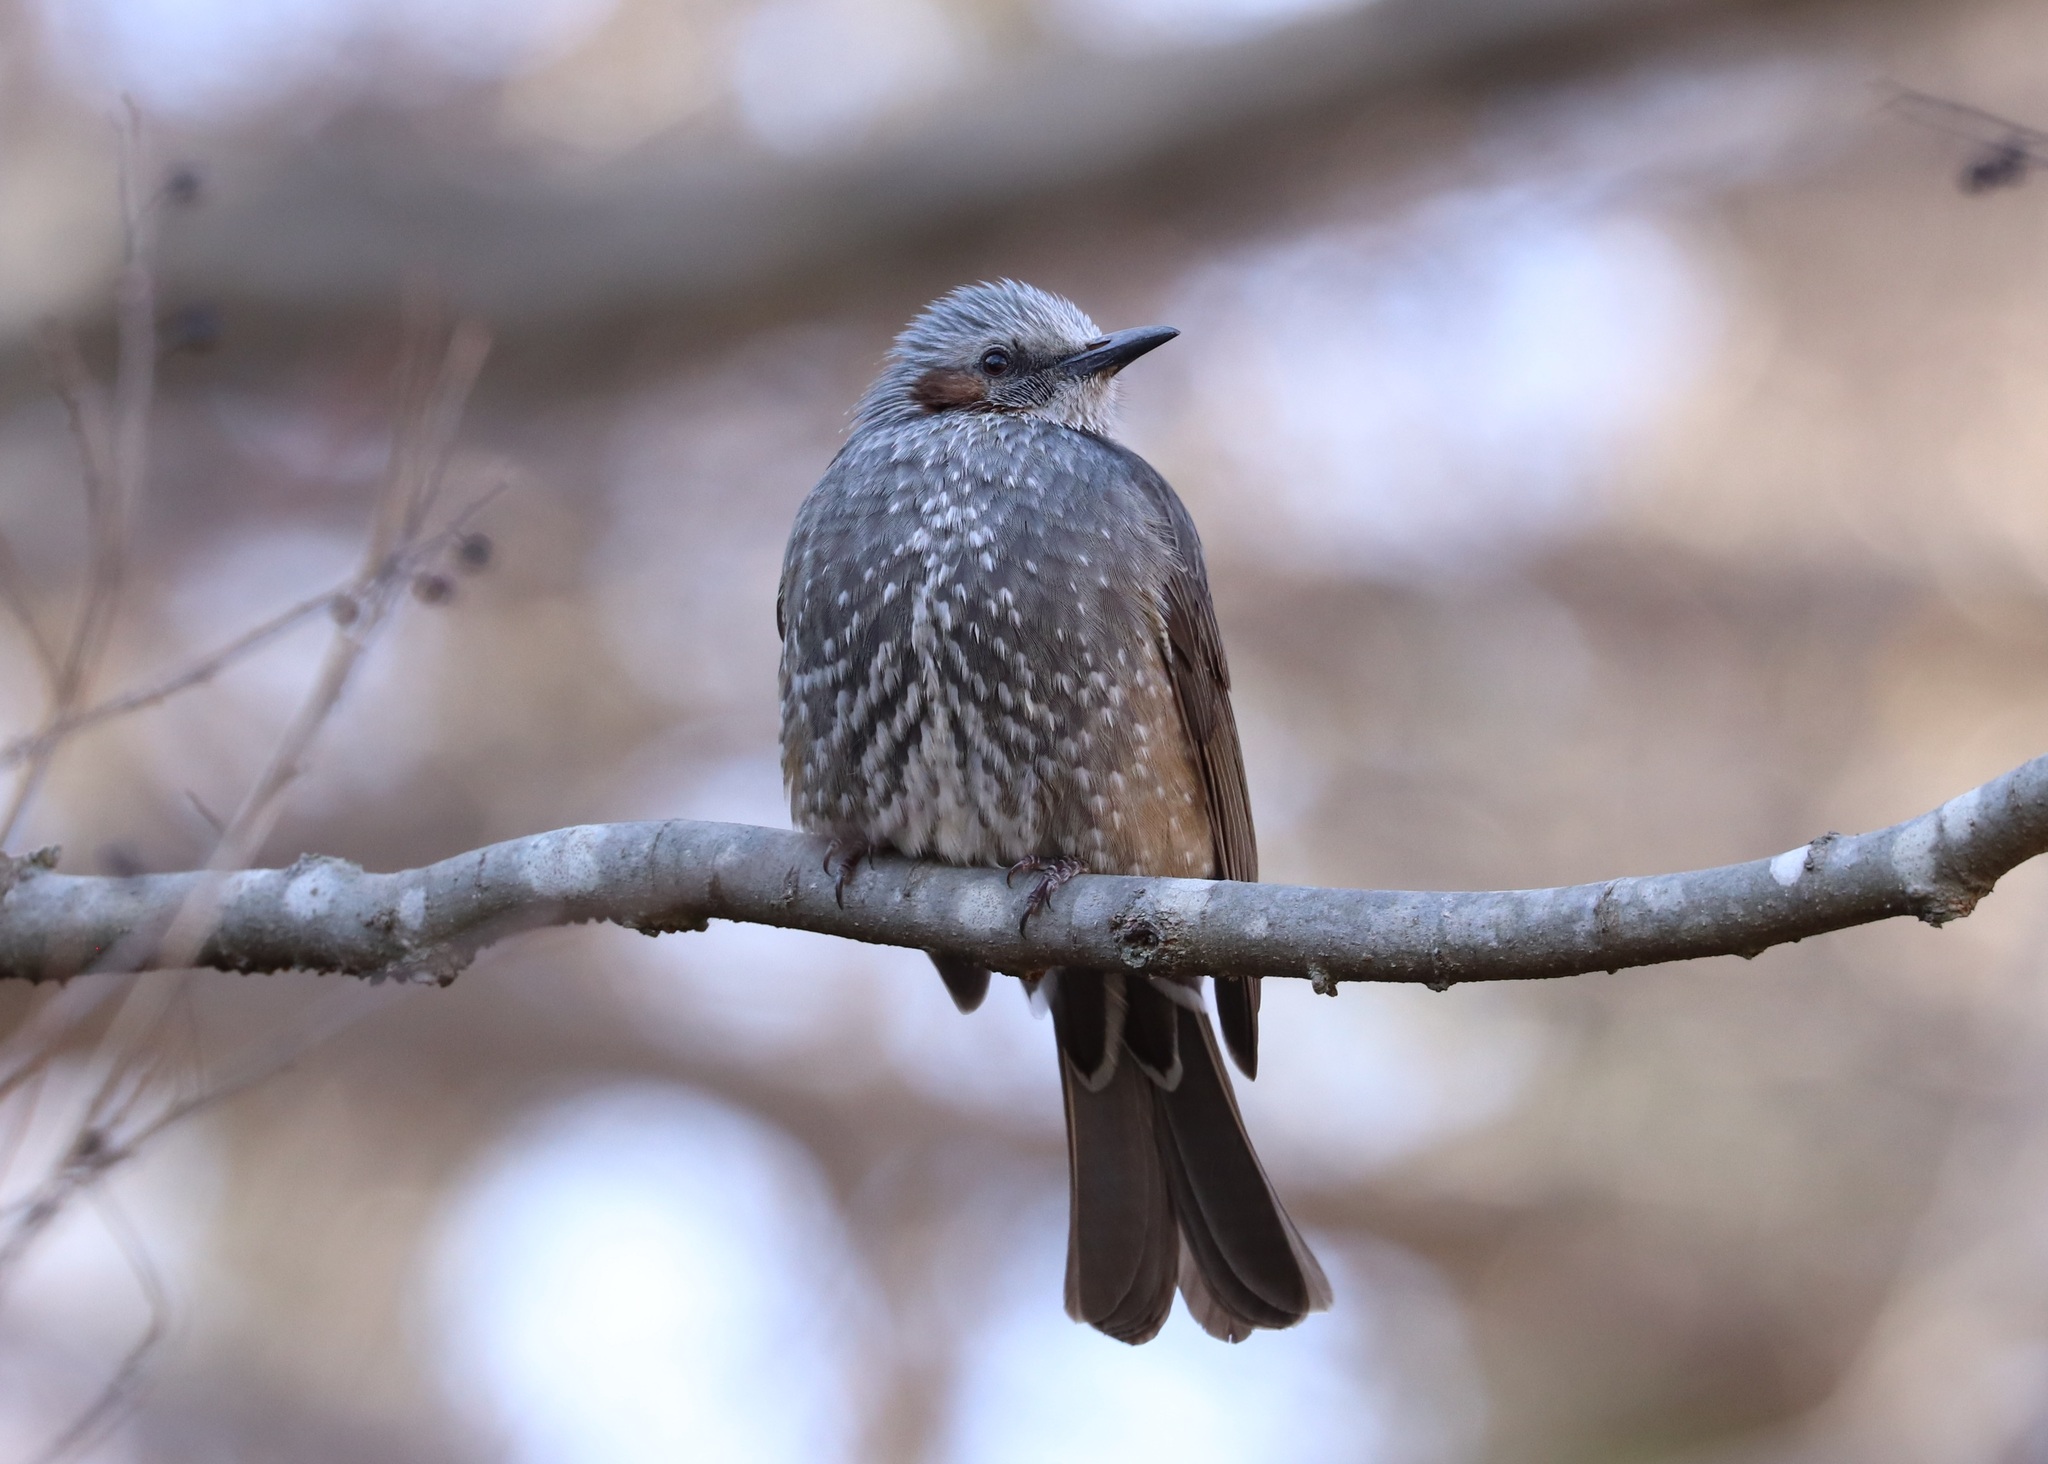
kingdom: Animalia
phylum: Chordata
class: Aves
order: Passeriformes
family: Pycnonotidae
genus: Hypsipetes
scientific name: Hypsipetes amaurotis
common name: Brown-eared bulbul
